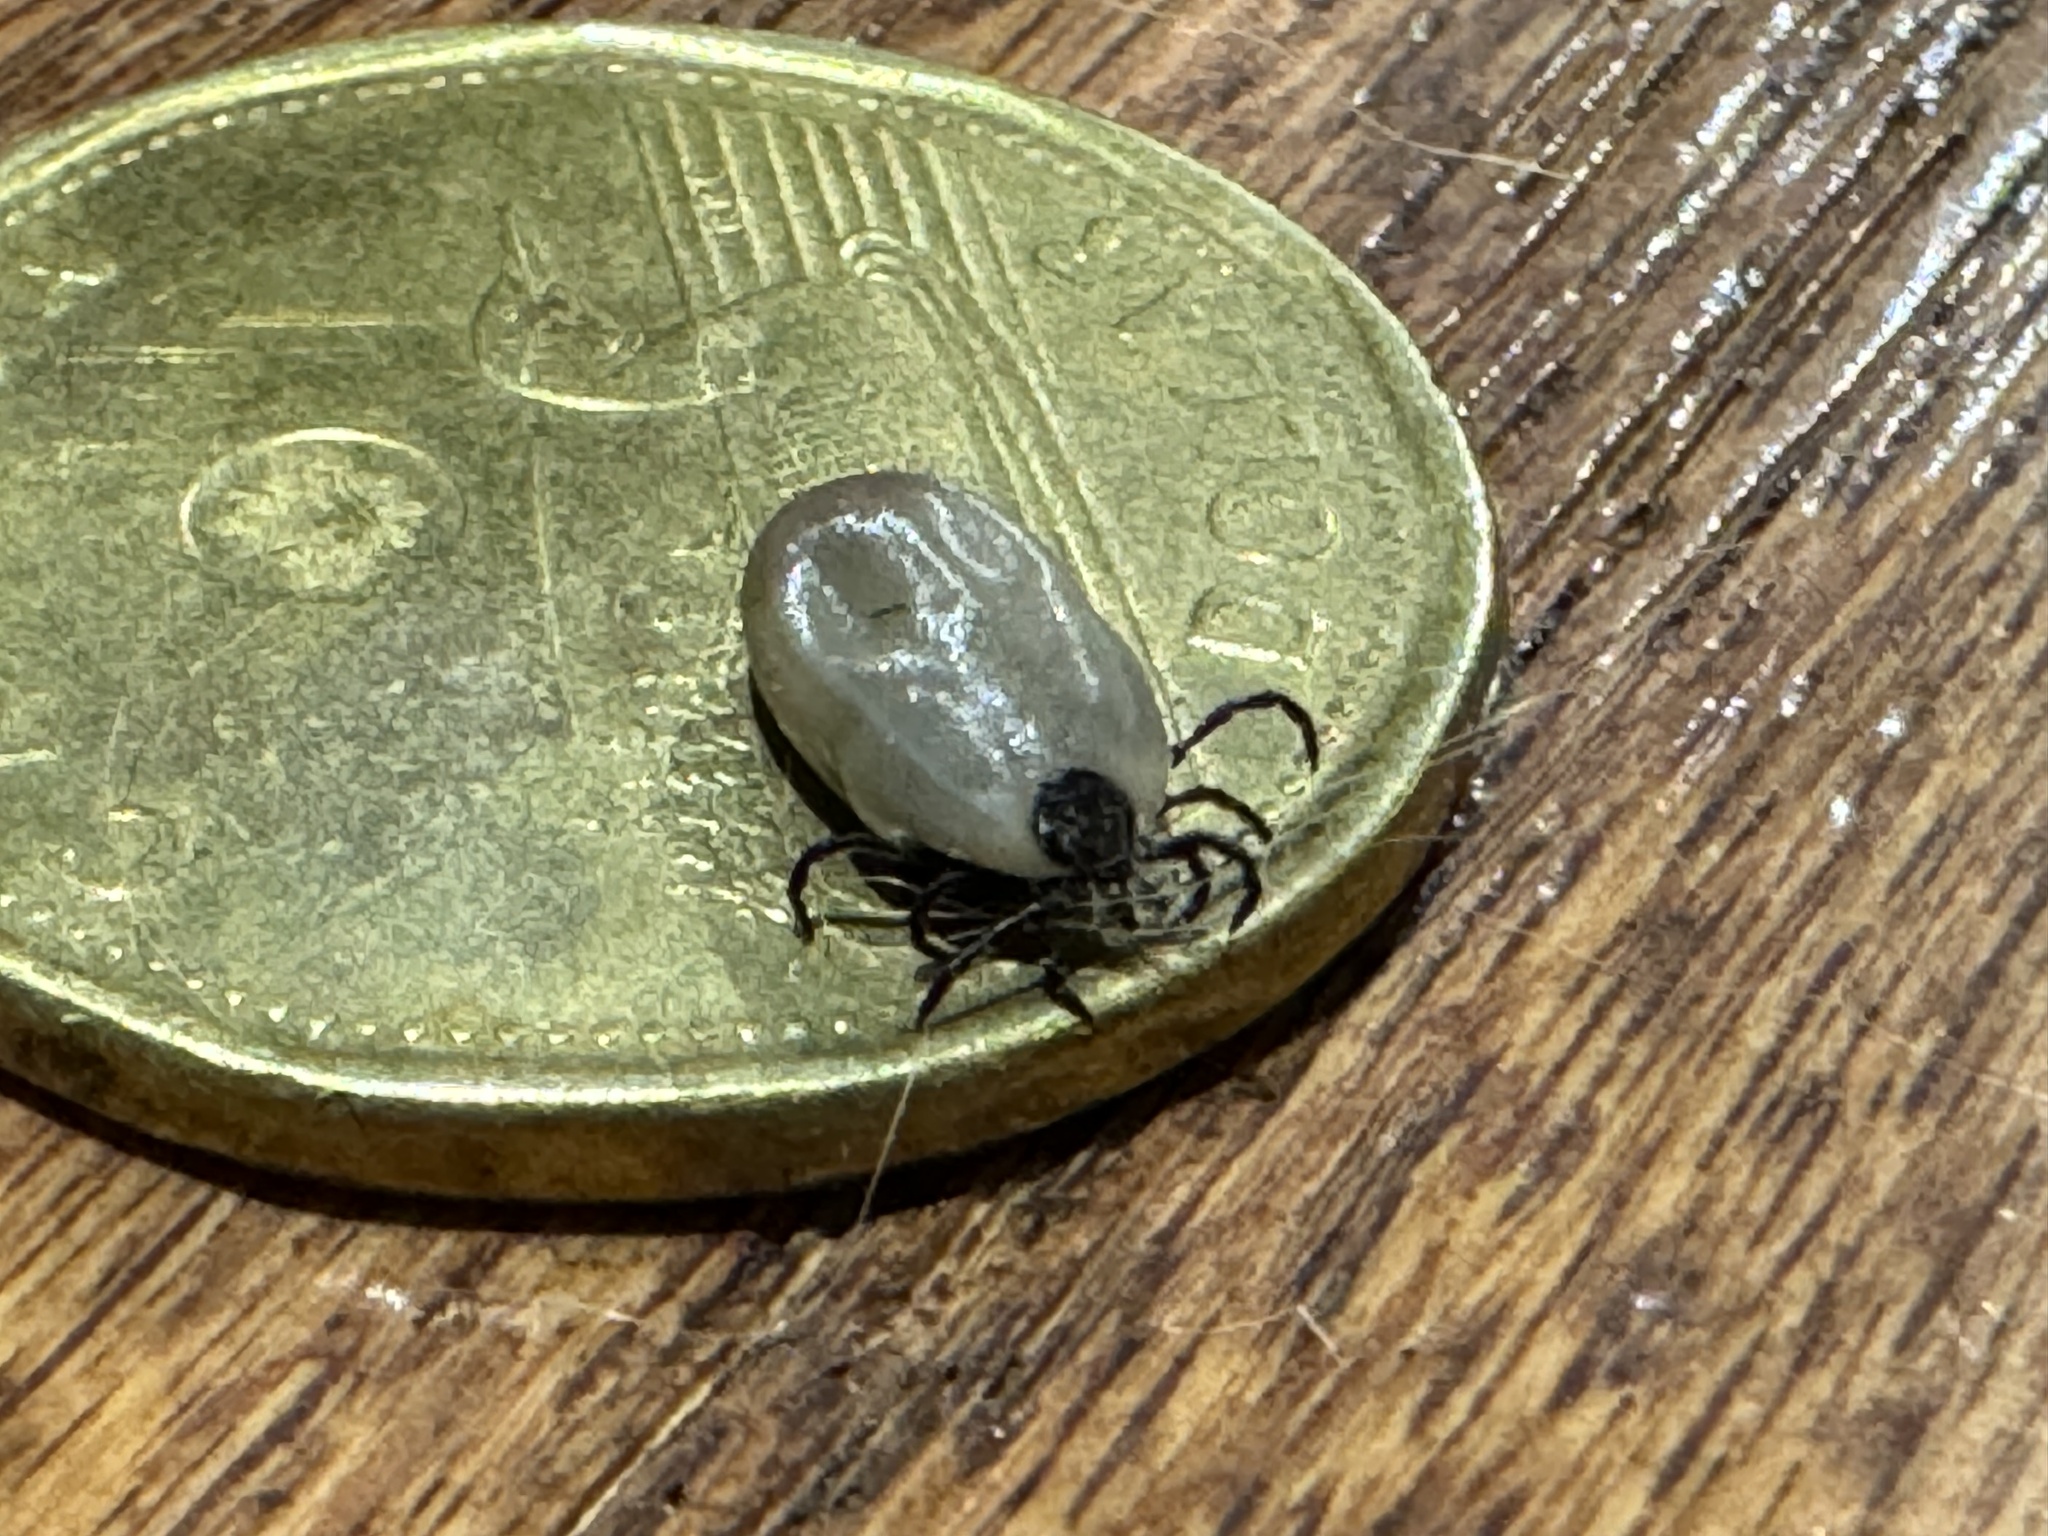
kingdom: Animalia
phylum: Arthropoda
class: Arachnida
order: Ixodida
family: Ixodidae
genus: Ixodes
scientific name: Ixodes pacificus
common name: California black-legged tick
